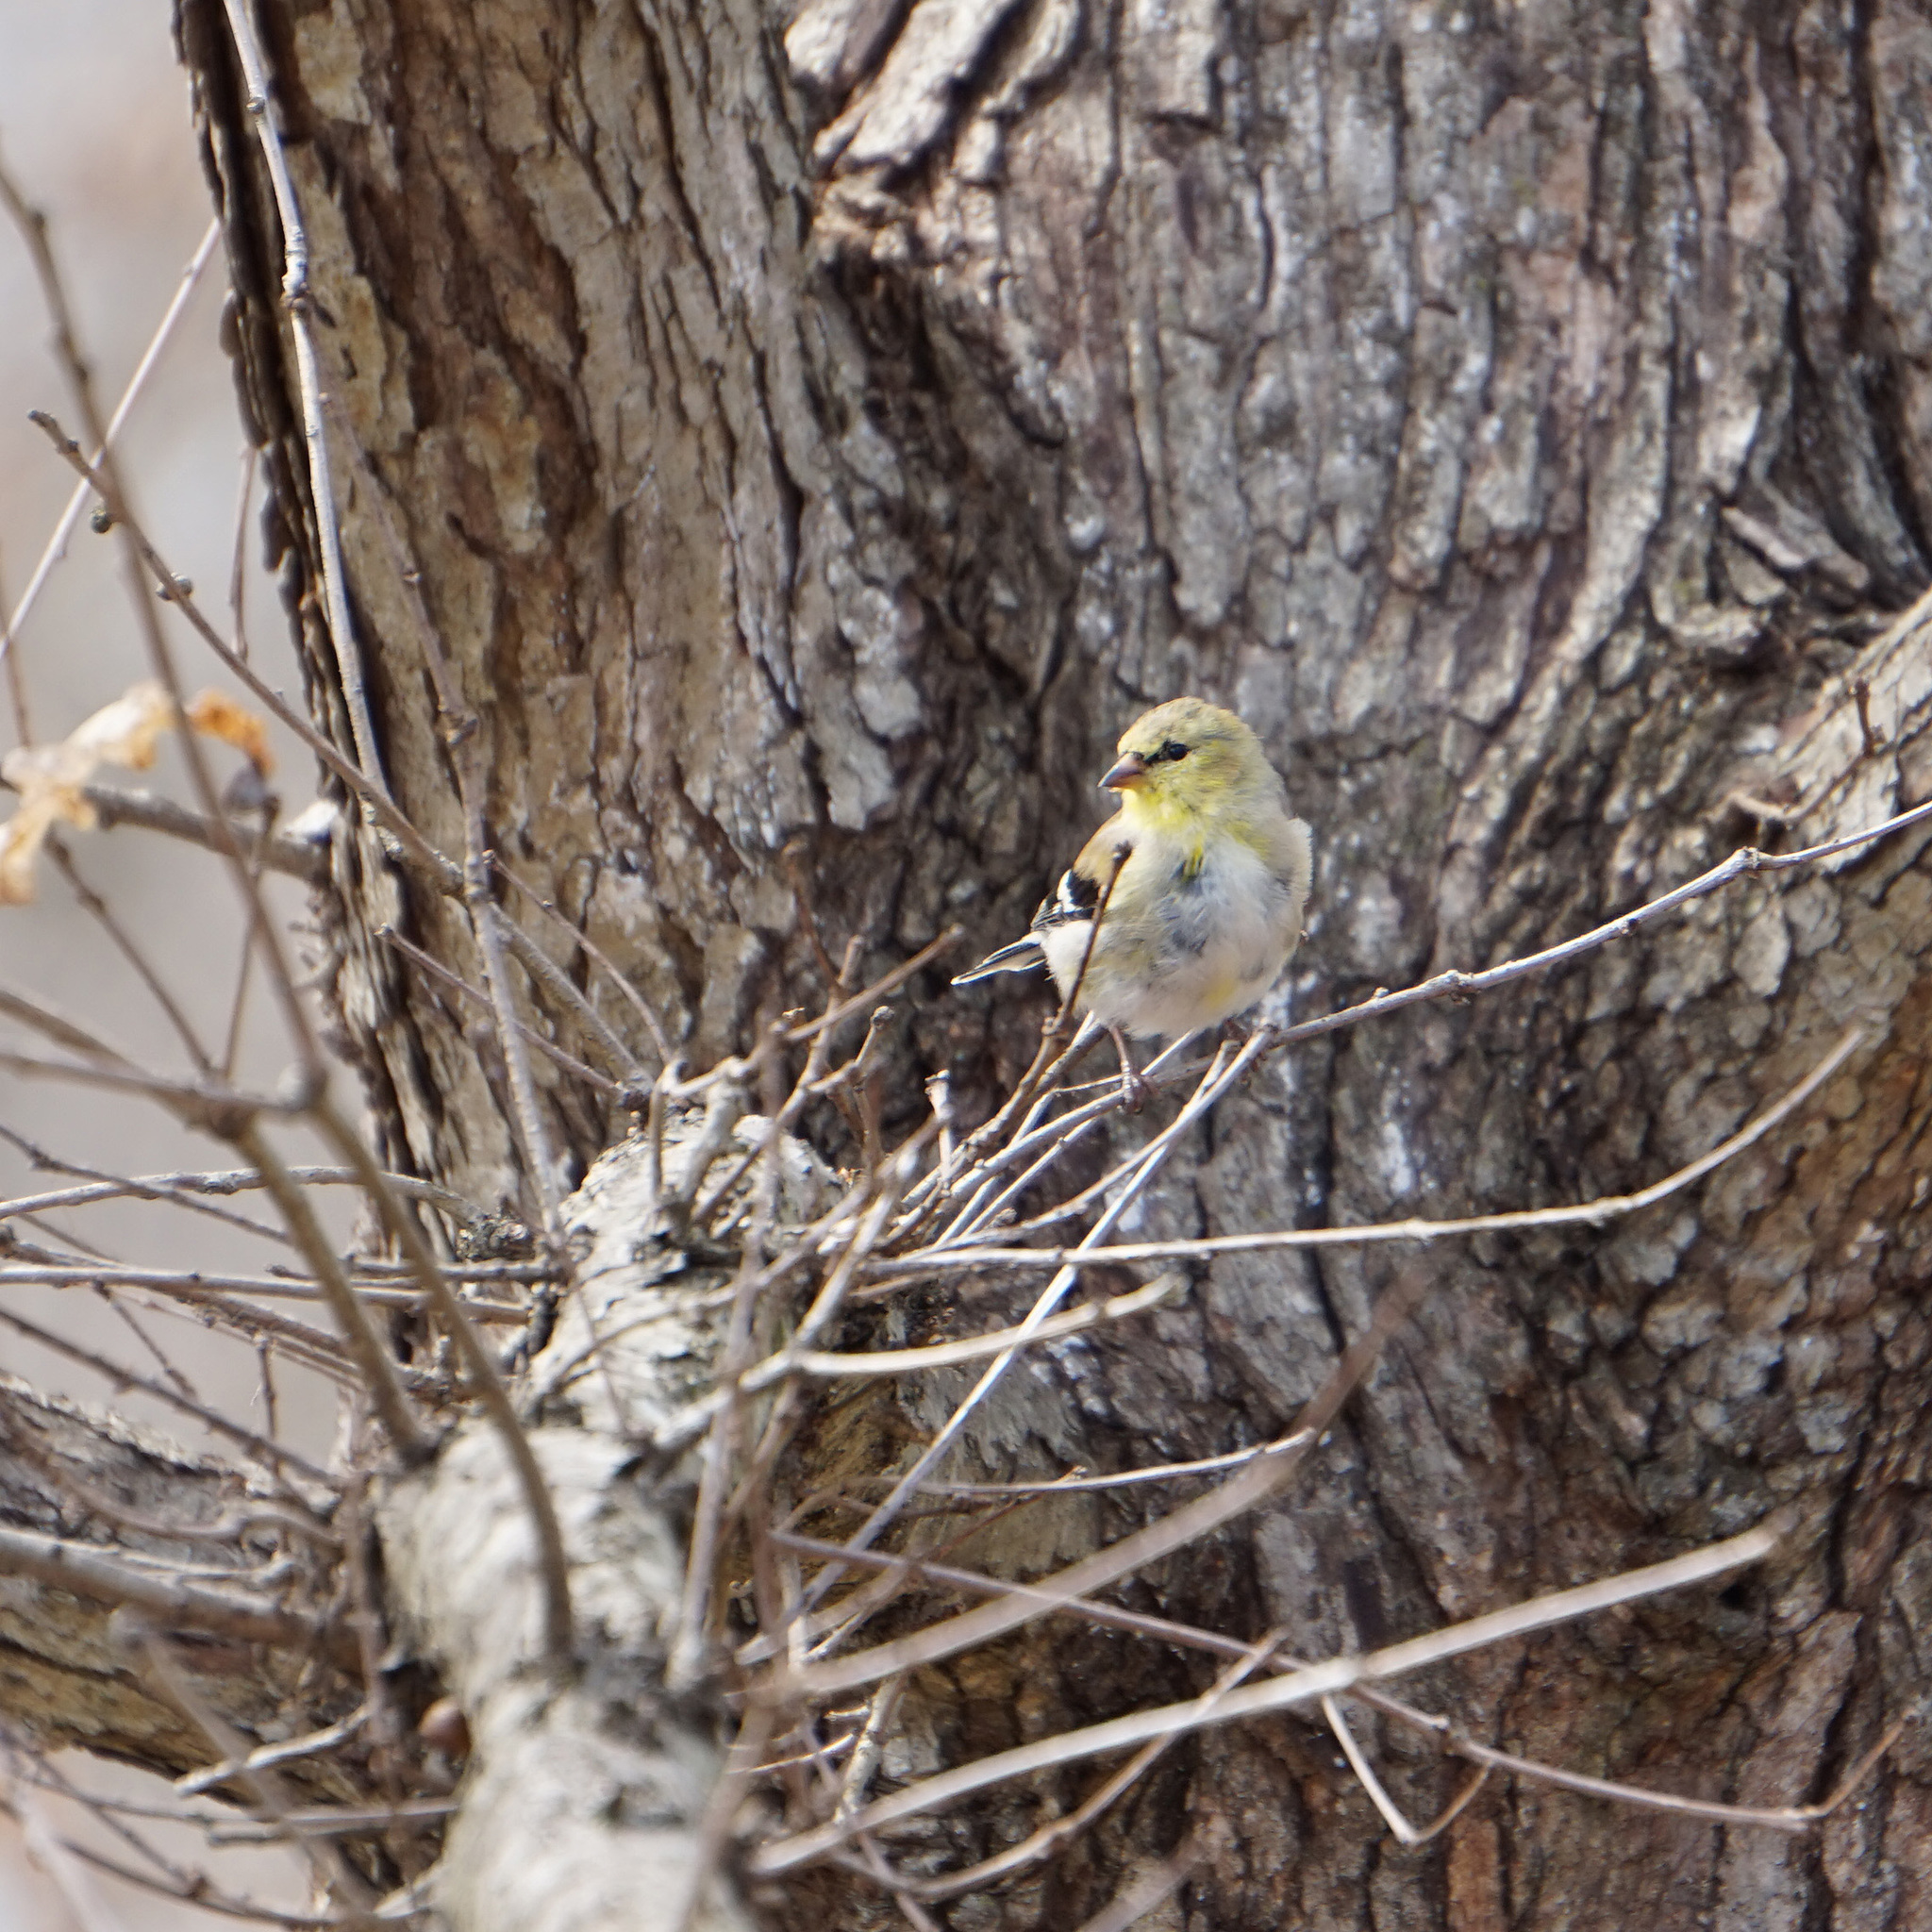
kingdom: Animalia
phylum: Chordata
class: Aves
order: Passeriformes
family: Fringillidae
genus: Spinus
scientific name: Spinus tristis
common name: American goldfinch
